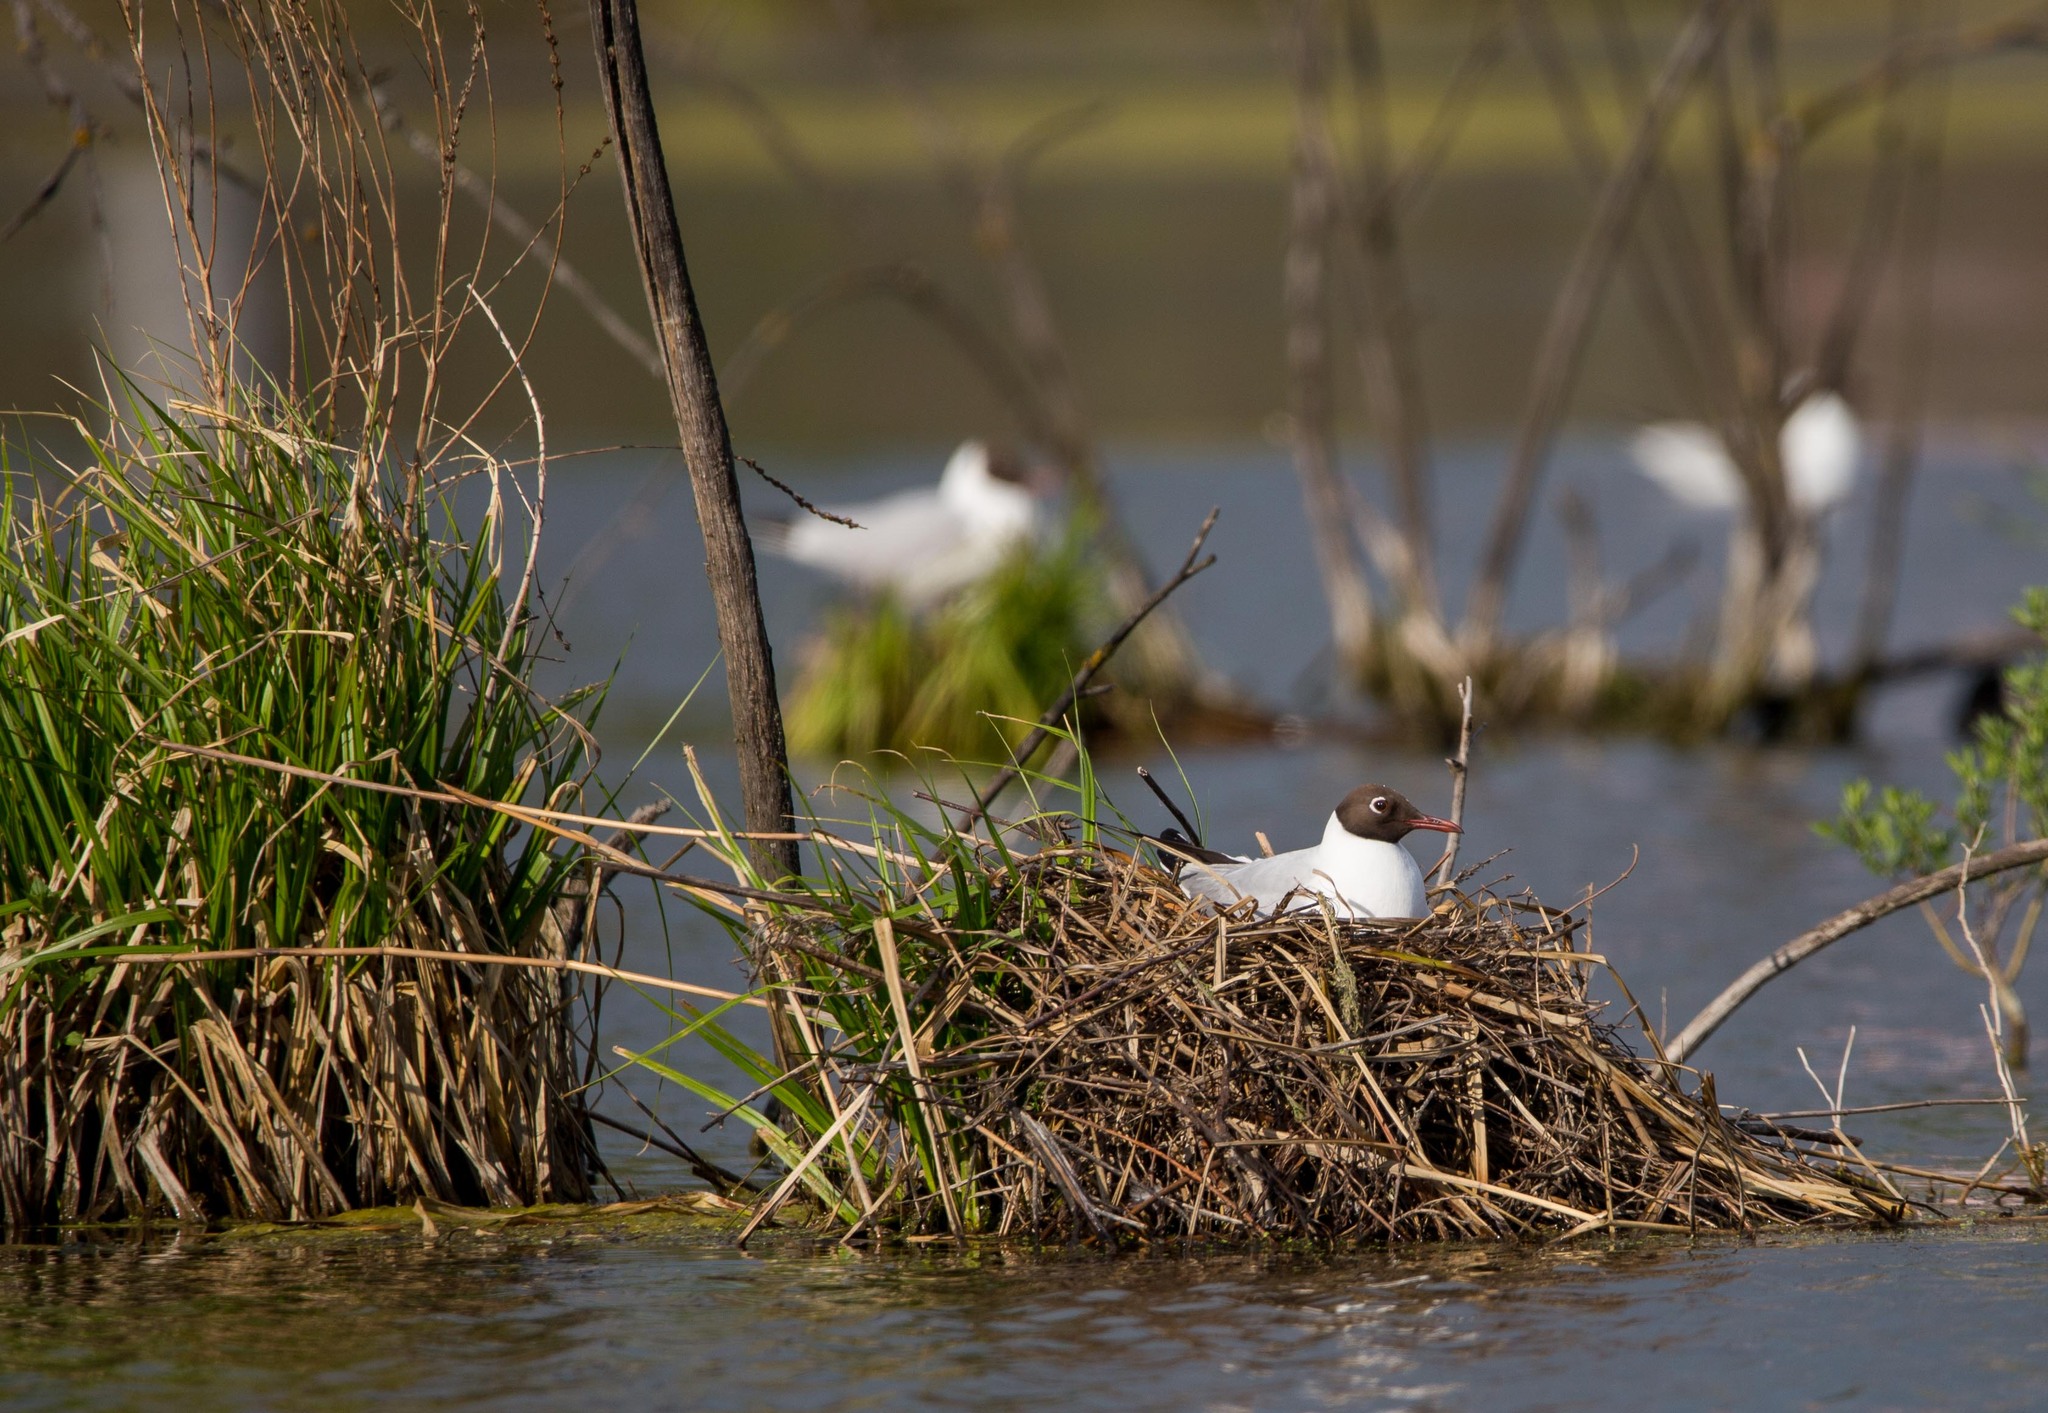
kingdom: Animalia
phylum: Chordata
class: Aves
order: Charadriiformes
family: Laridae
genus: Chroicocephalus
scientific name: Chroicocephalus ridibundus
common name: Black-headed gull
